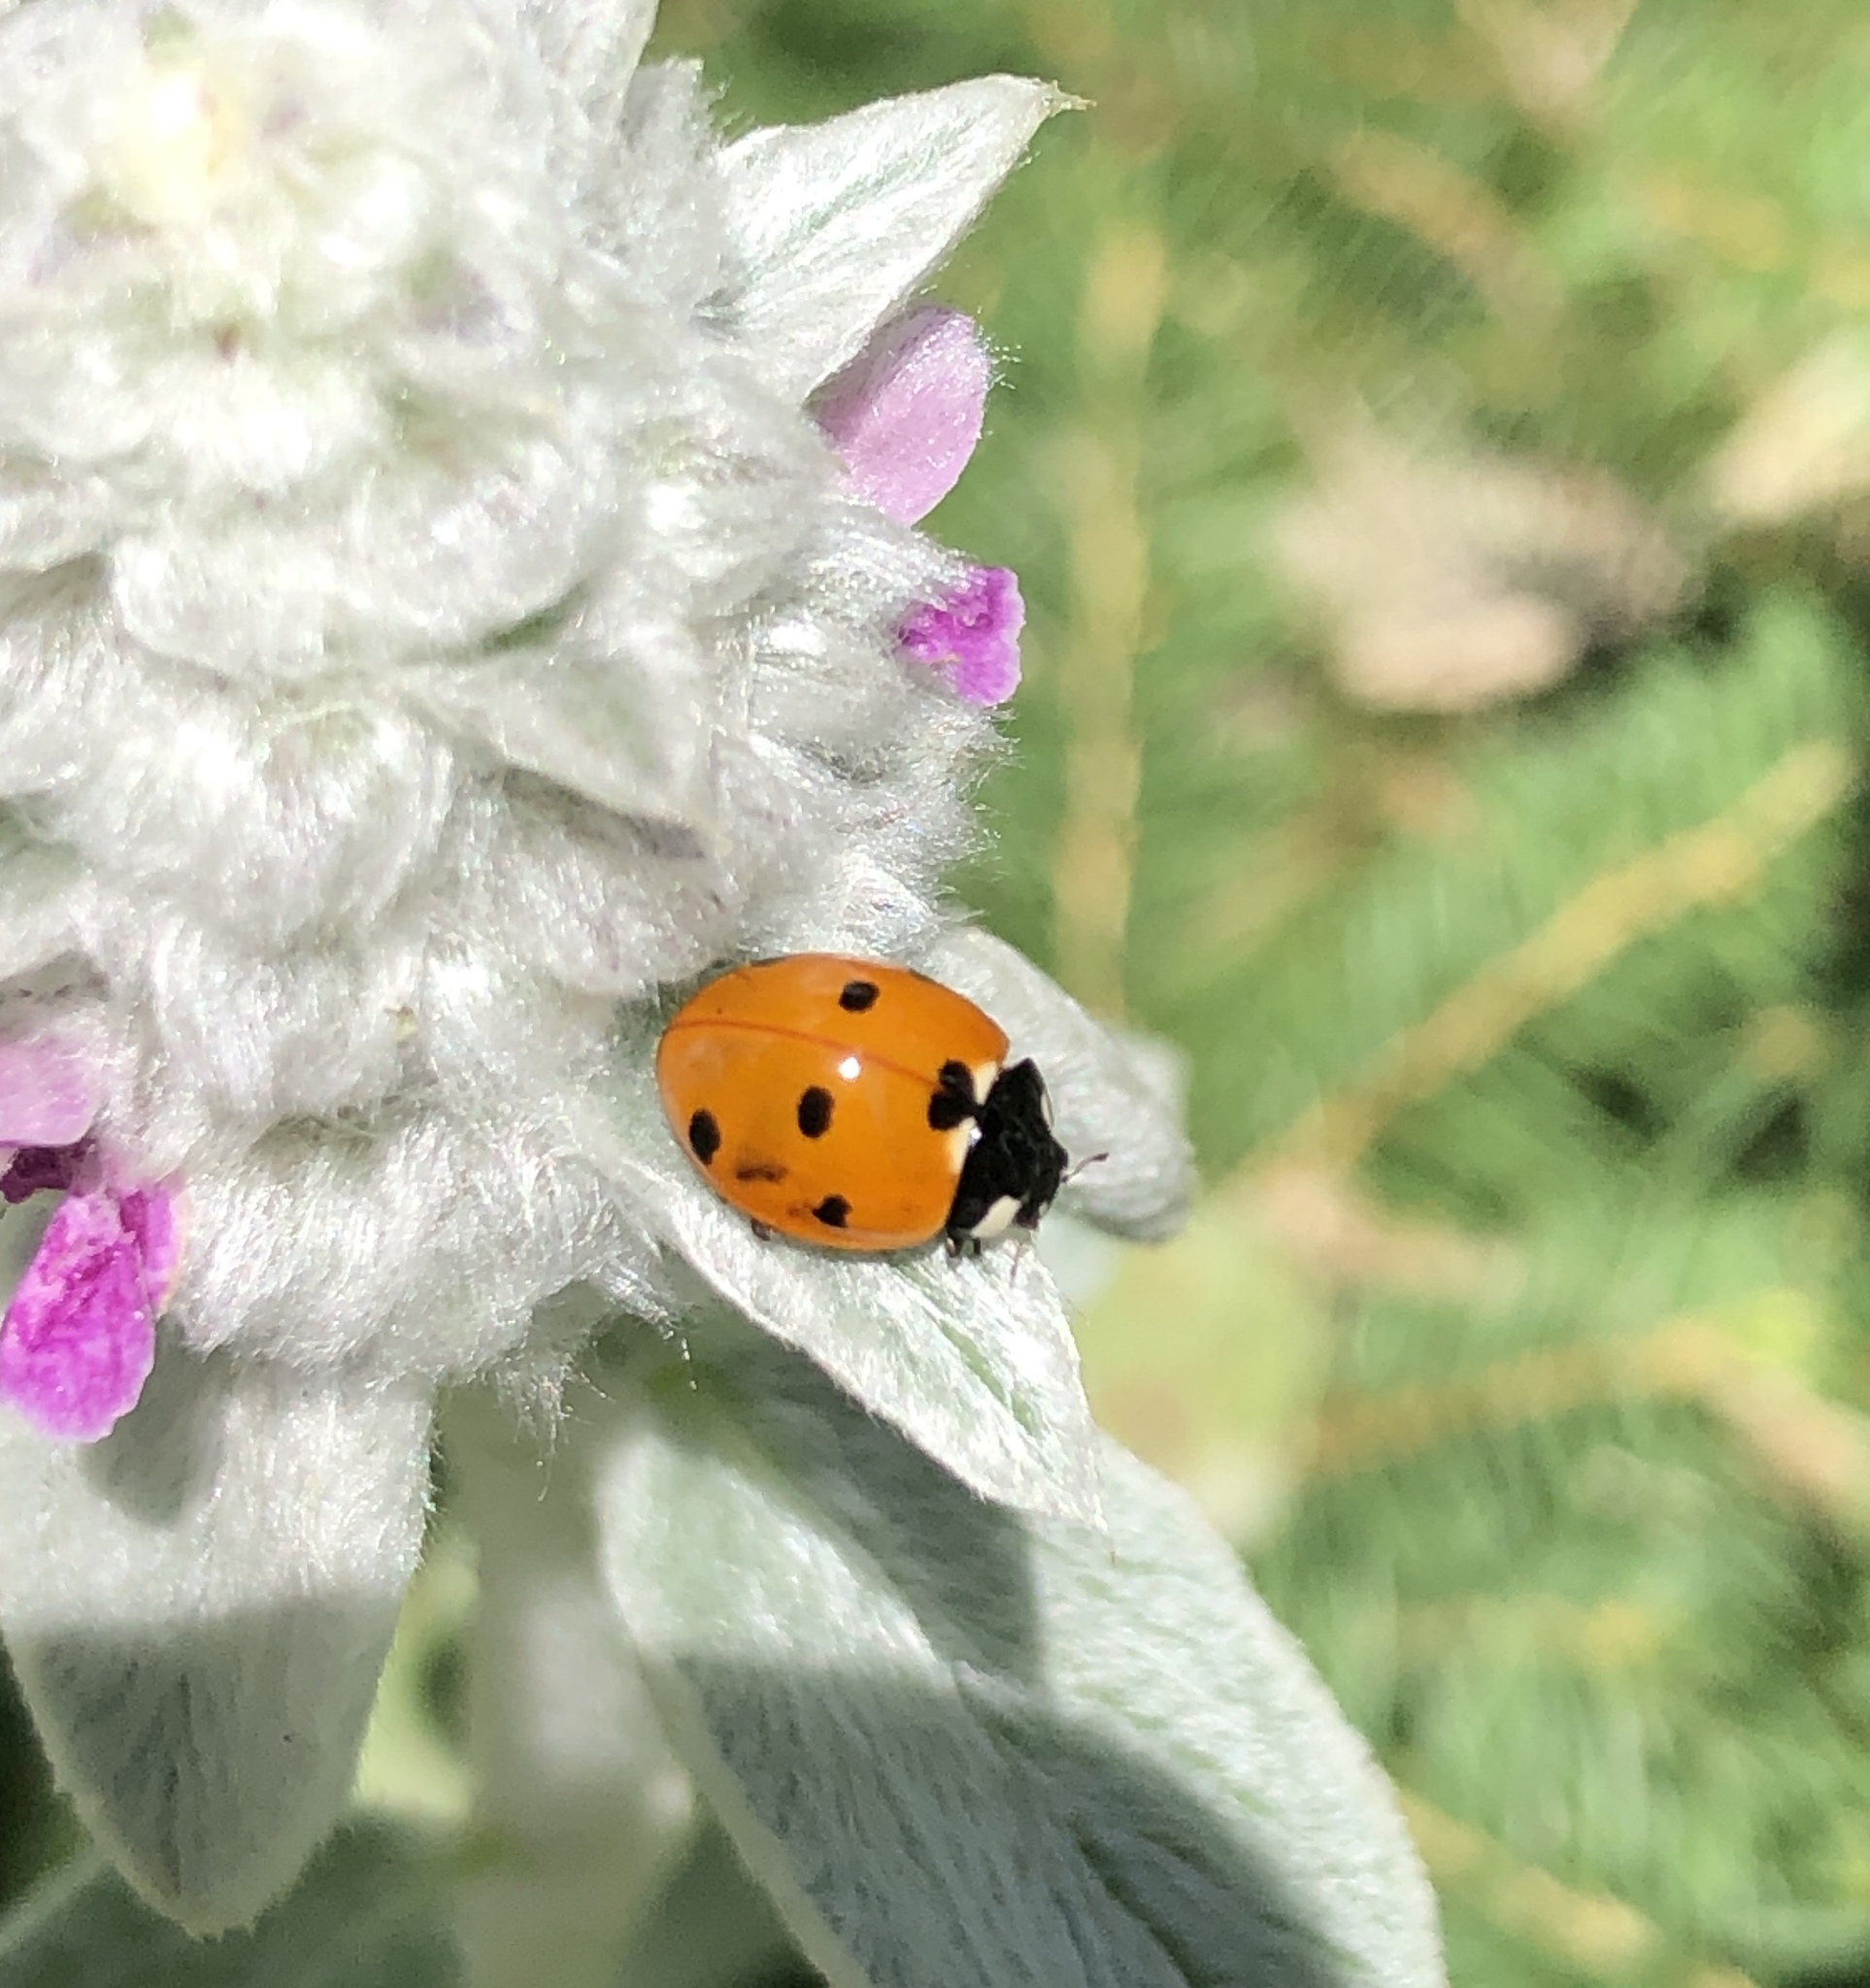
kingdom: Animalia
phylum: Arthropoda
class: Insecta
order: Coleoptera
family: Coccinellidae
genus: Coccinella
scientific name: Coccinella septempunctata
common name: Sevenspotted lady beetle
